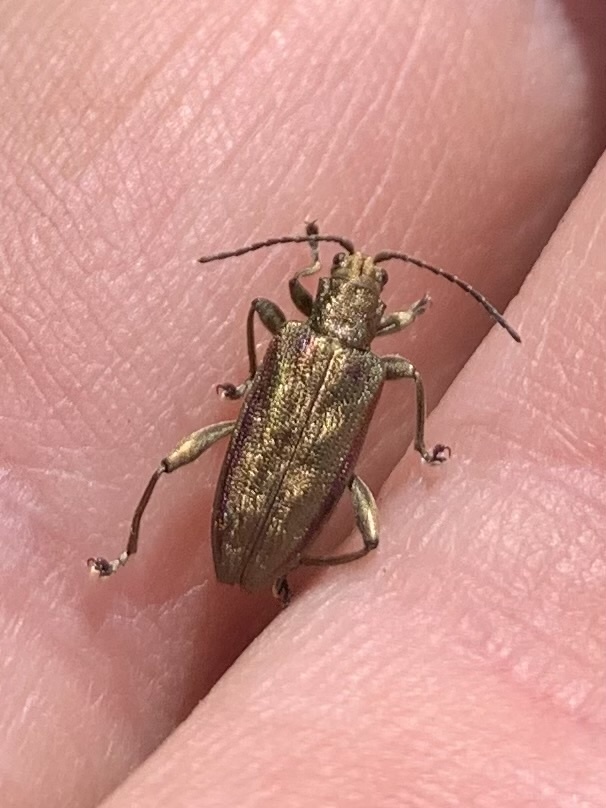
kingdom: Animalia
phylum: Arthropoda
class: Insecta
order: Coleoptera
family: Chrysomelidae
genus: Donacia
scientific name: Donacia marginata
